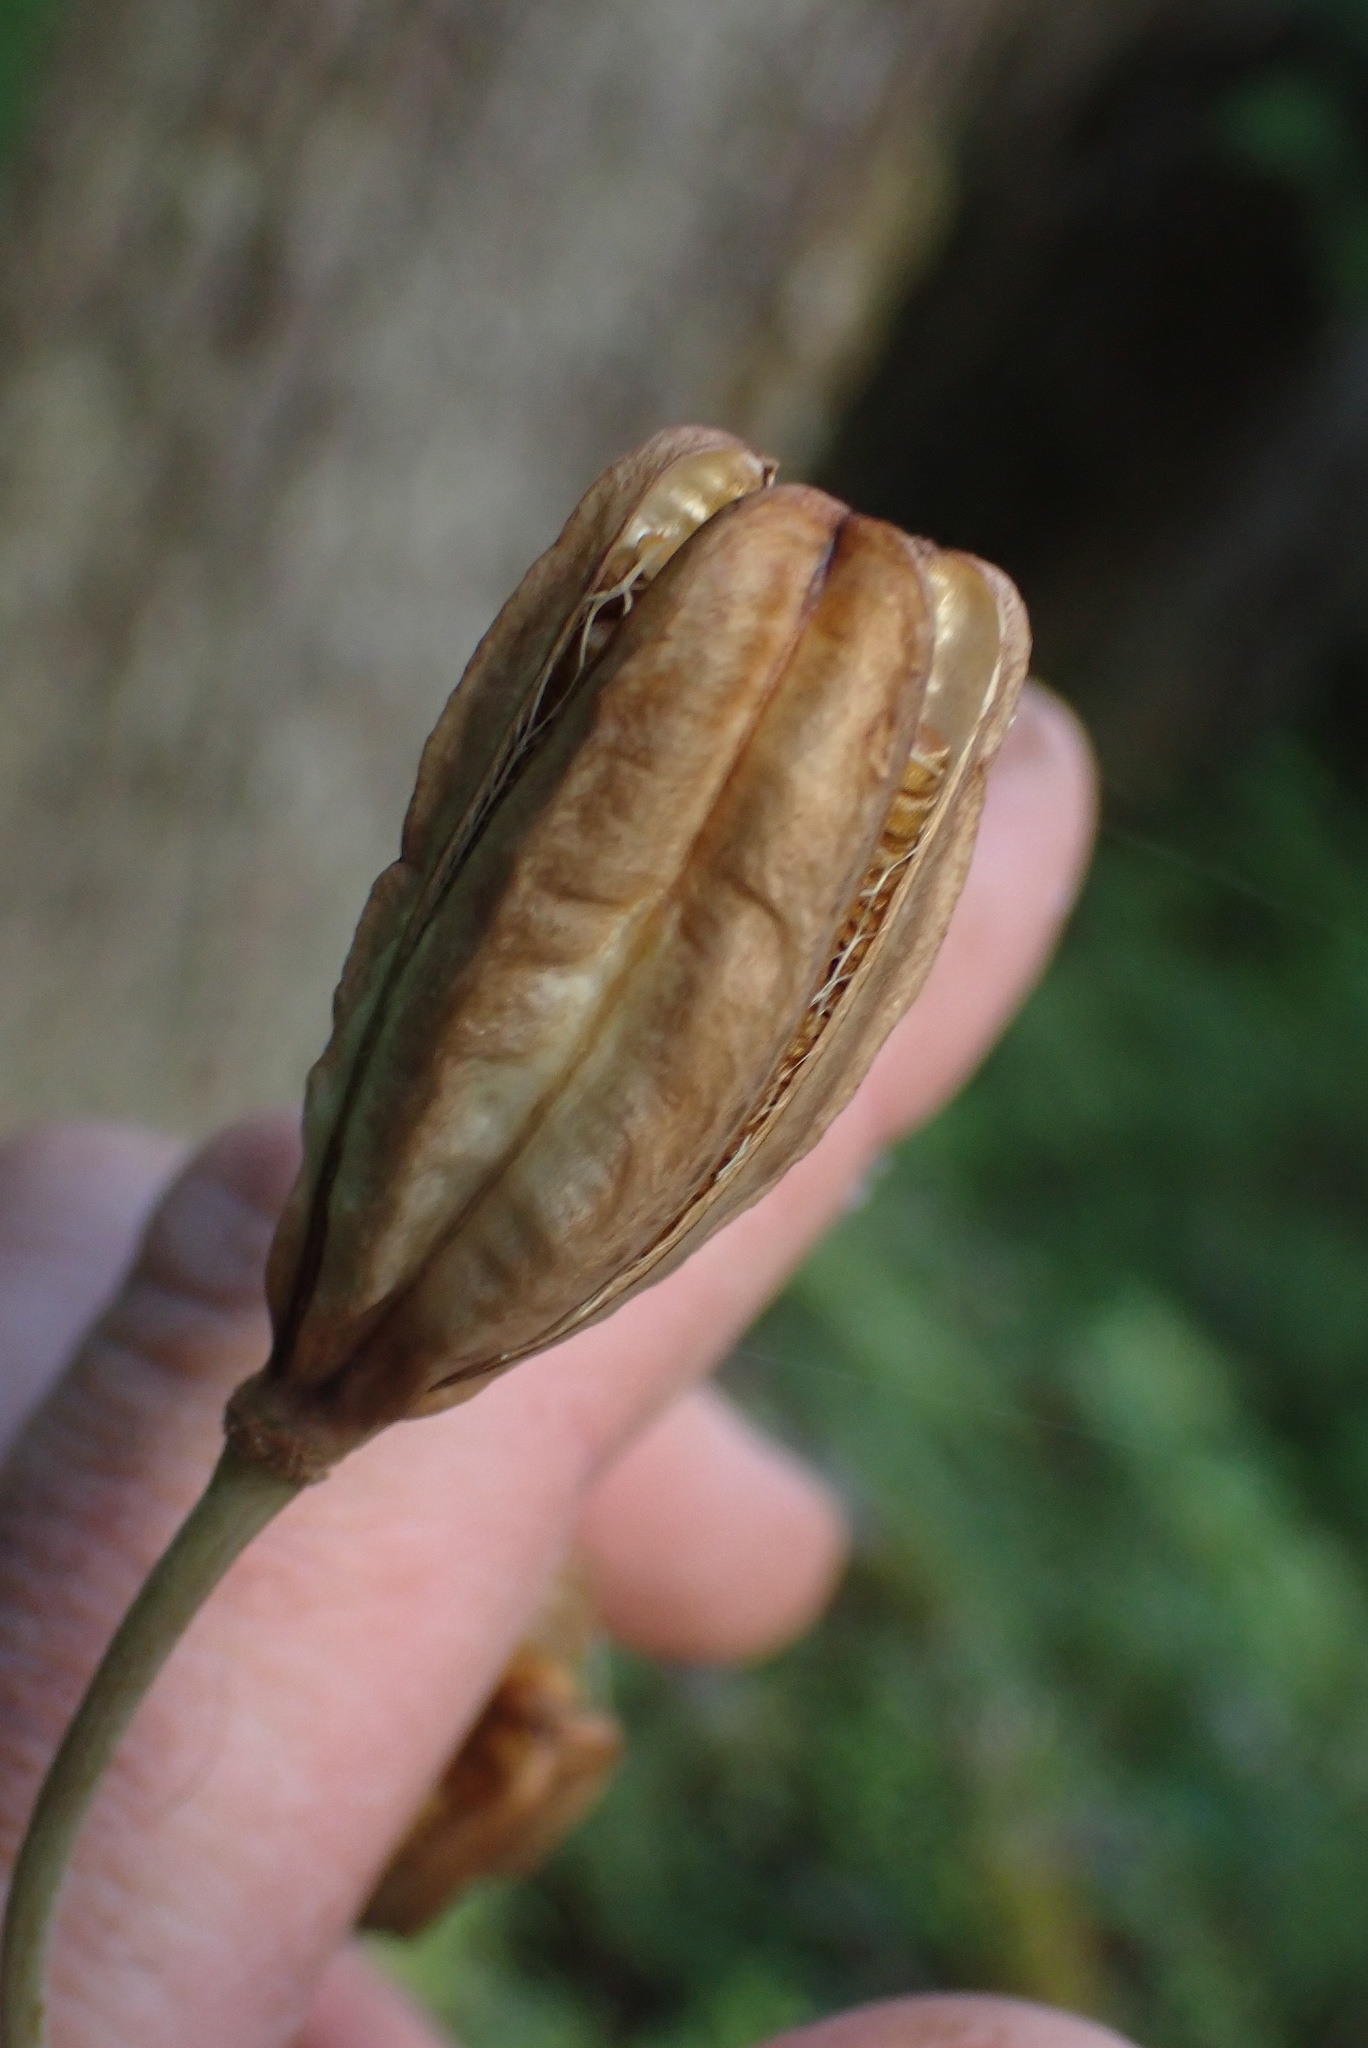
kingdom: Plantae
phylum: Tracheophyta
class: Liliopsida
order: Liliales
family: Liliaceae
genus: Lilium
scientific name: Lilium columbianum
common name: Columbia lily
